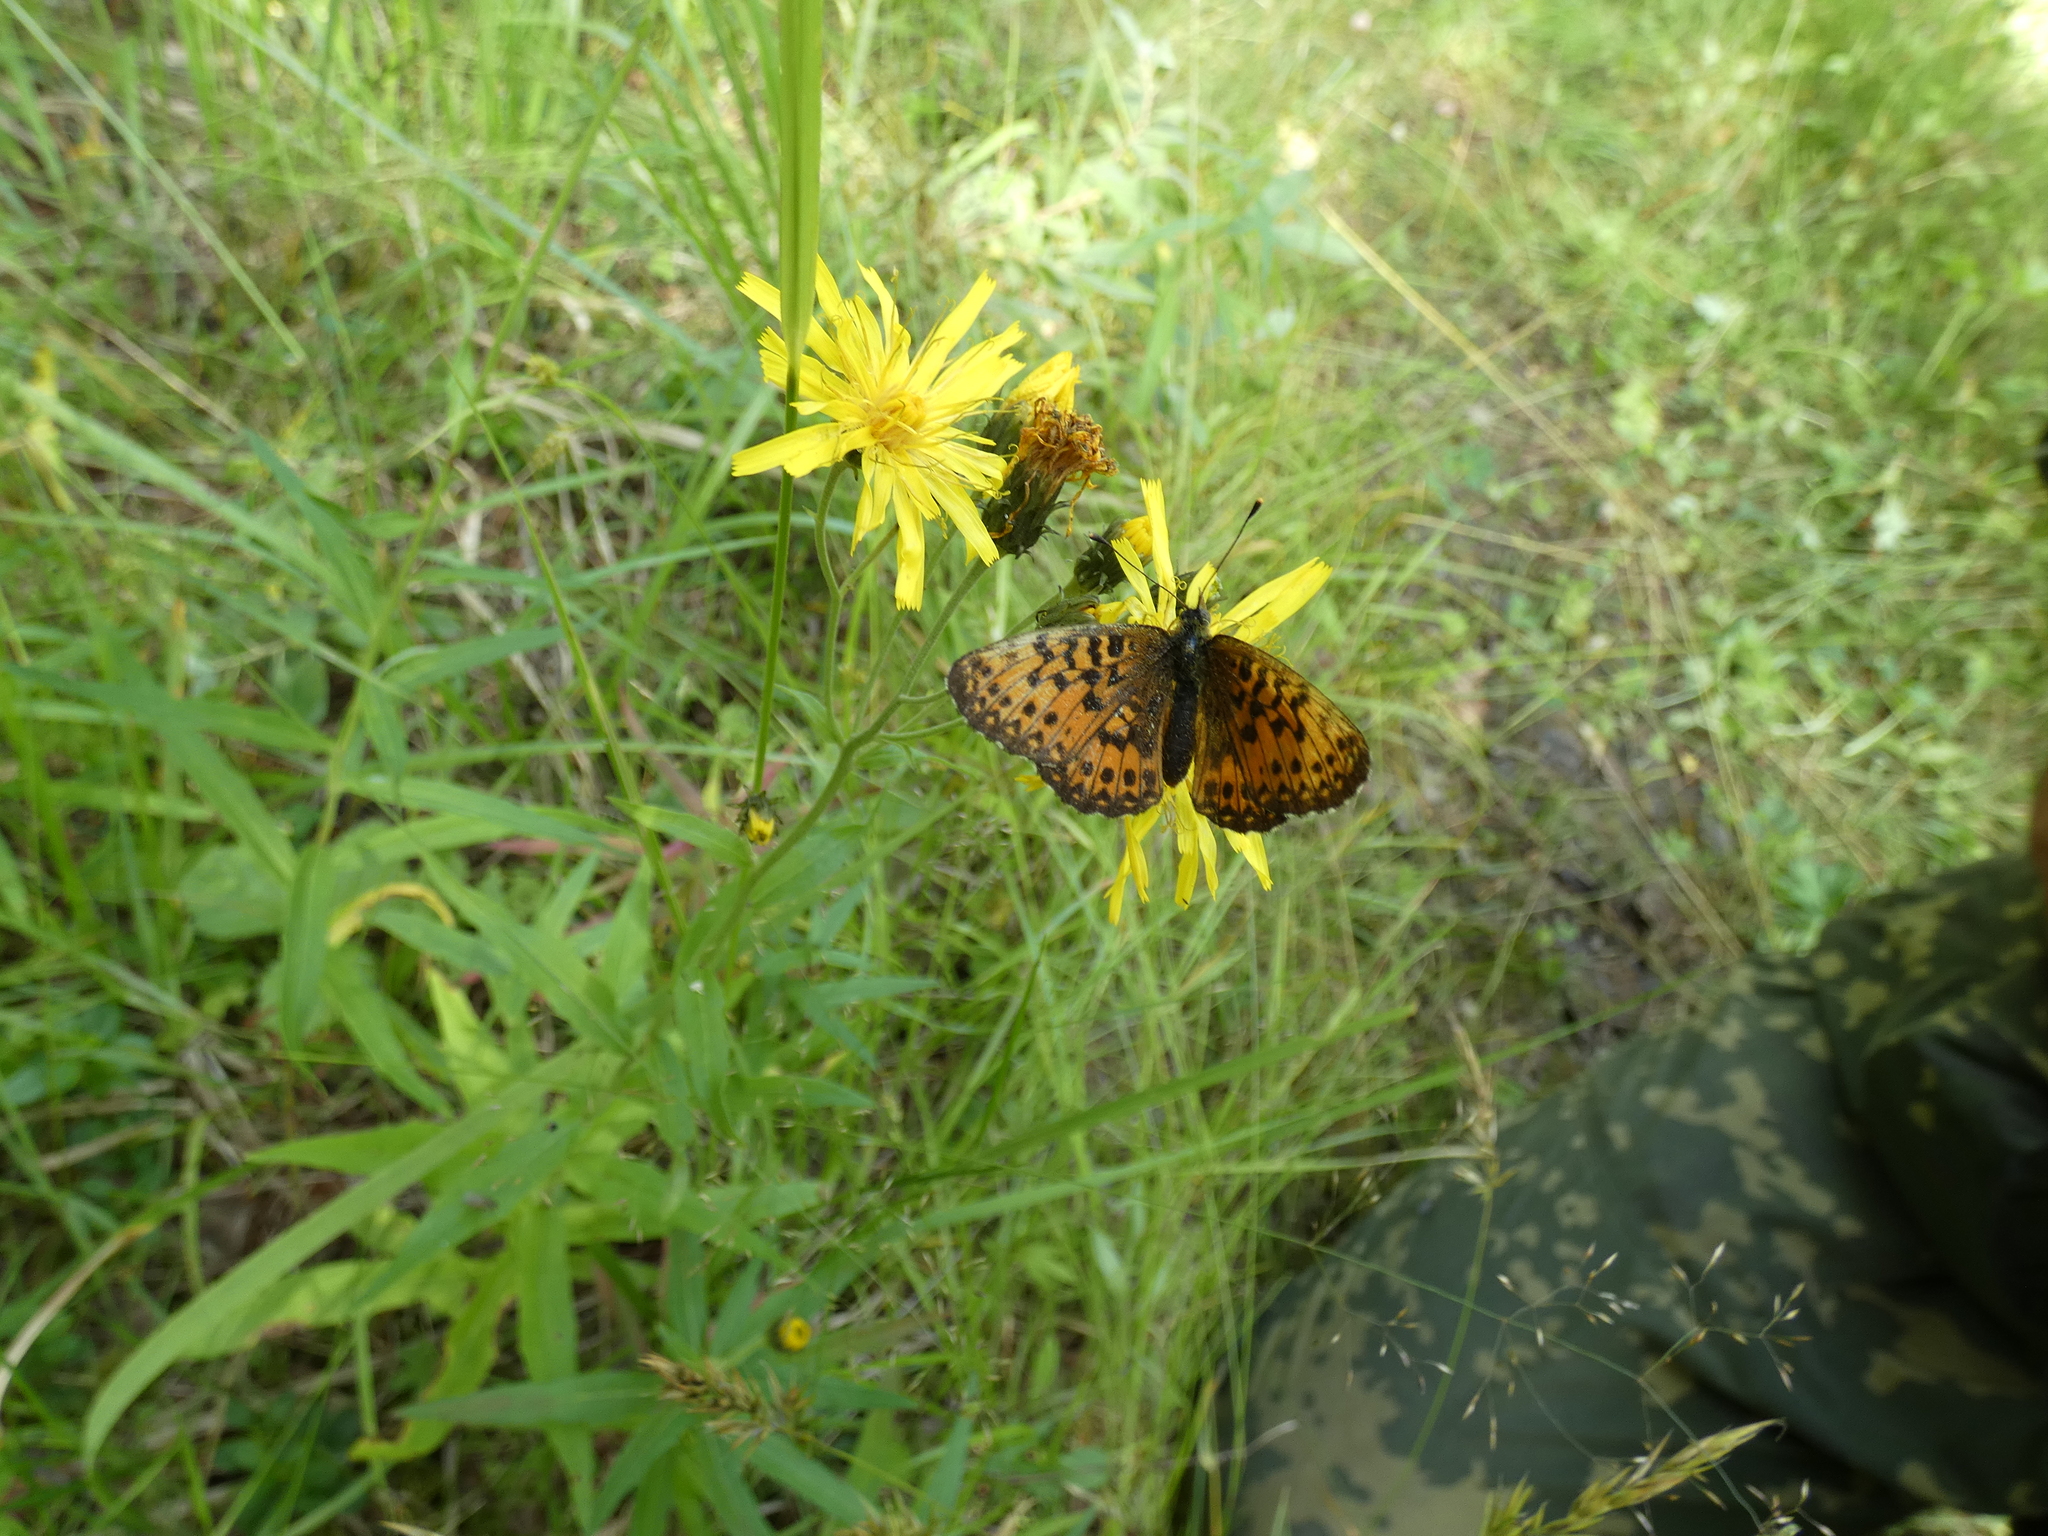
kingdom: Animalia
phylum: Arthropoda
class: Insecta
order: Lepidoptera
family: Nymphalidae
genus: Boloria
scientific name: Boloria titania
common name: Titania's fritillary
